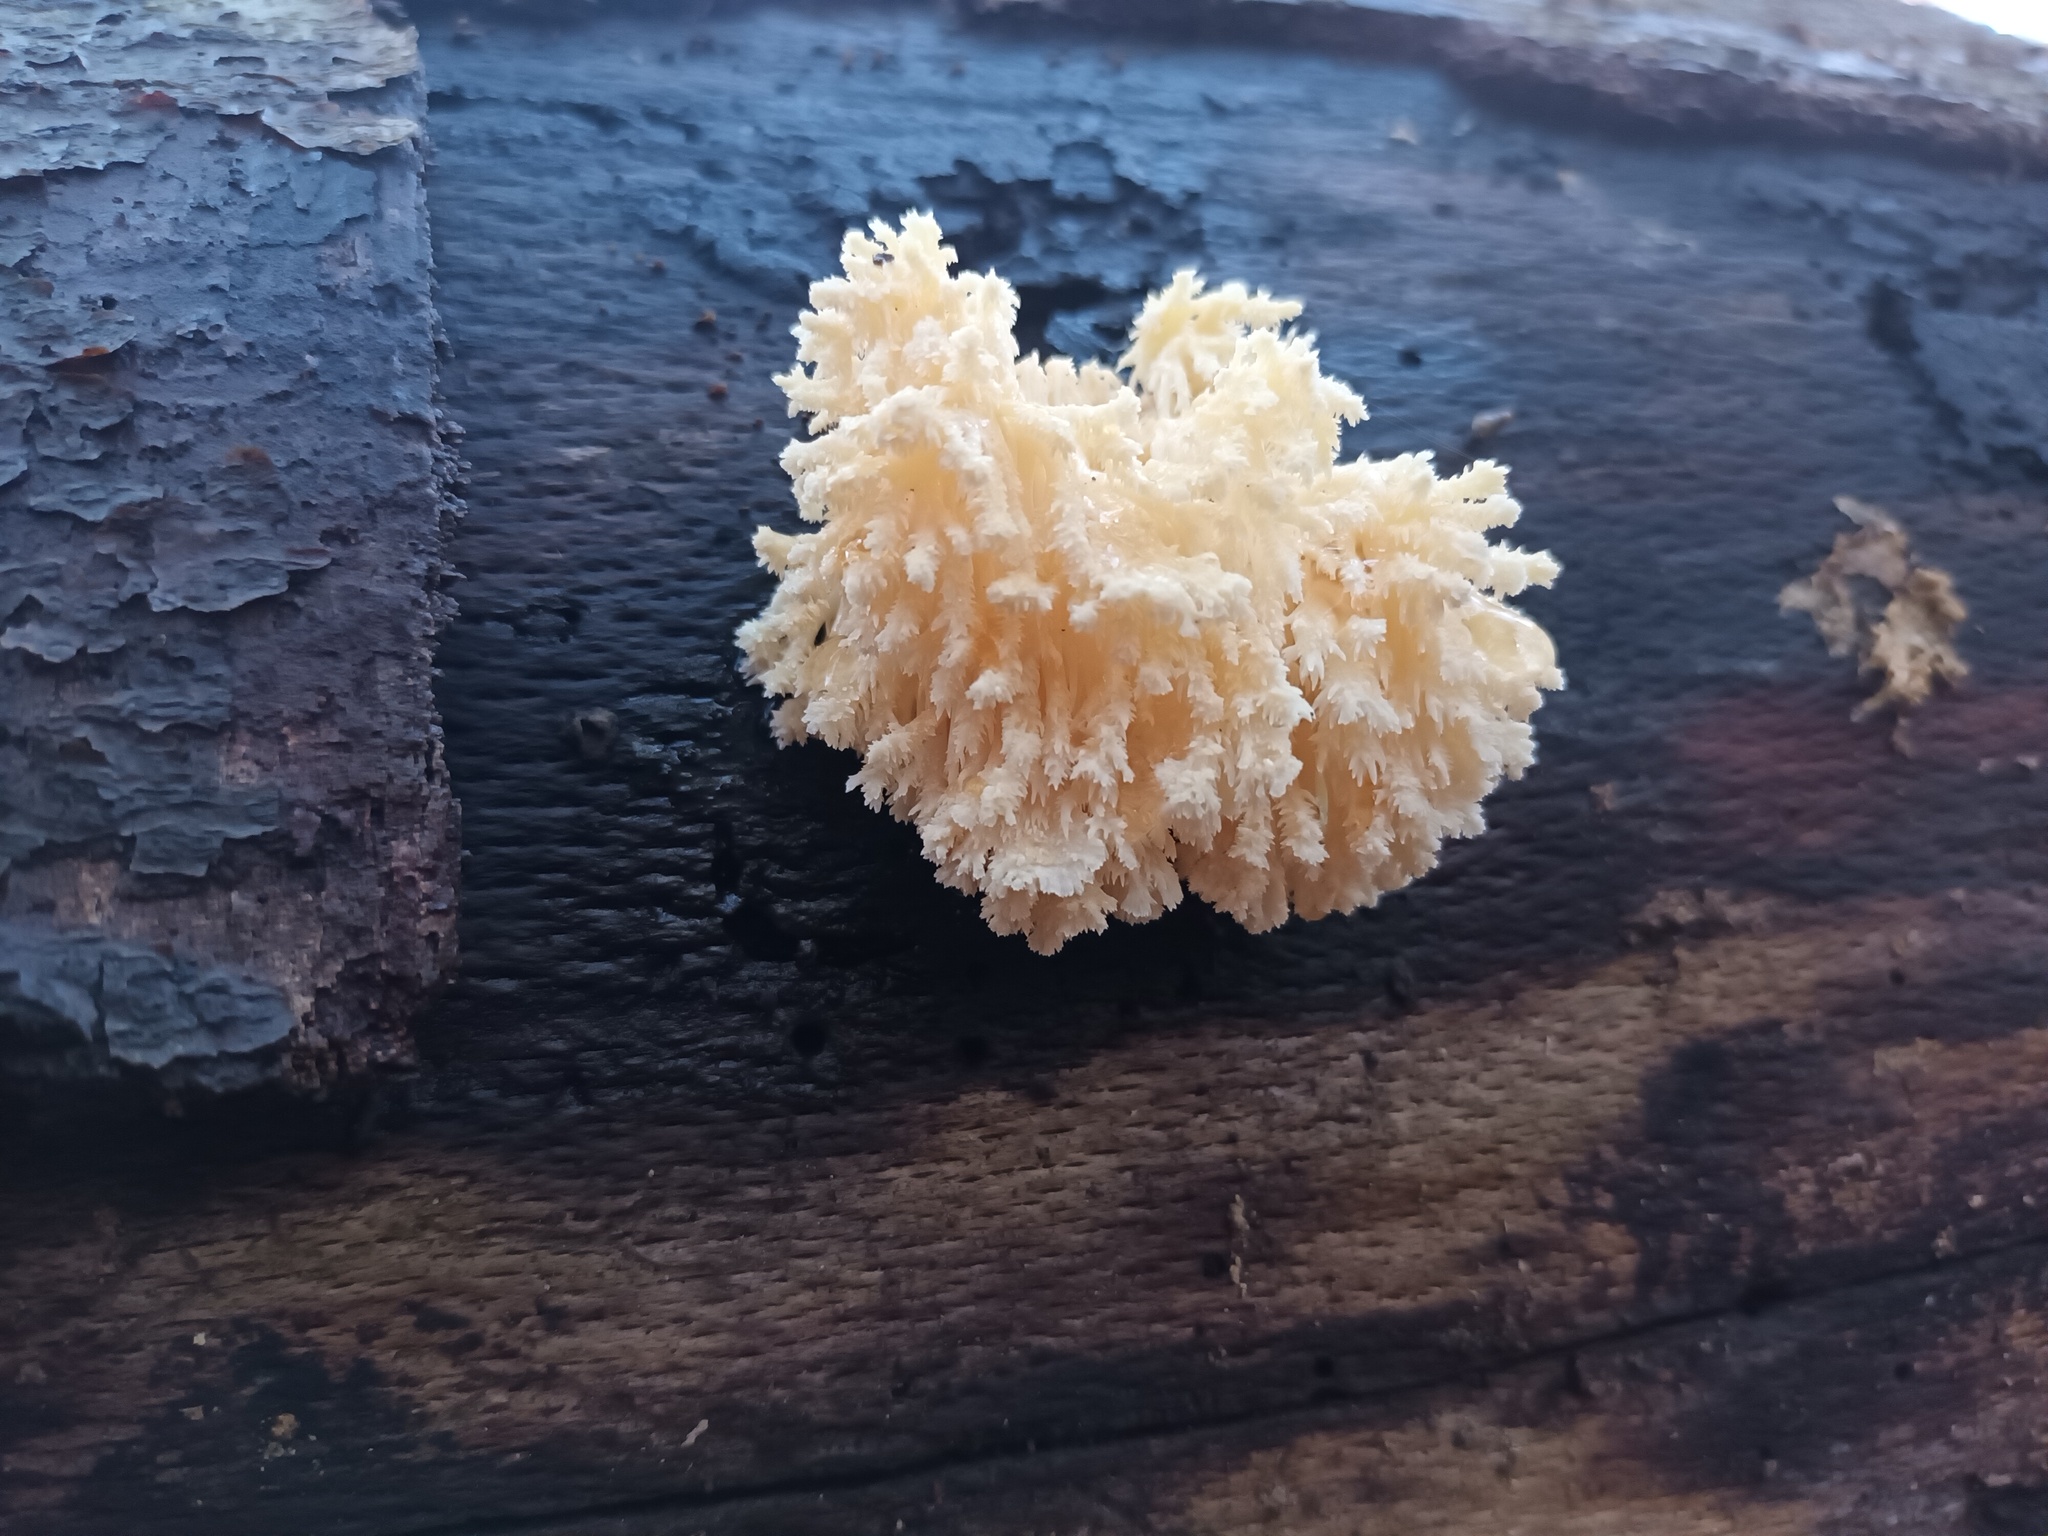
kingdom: Fungi
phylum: Basidiomycota
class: Agaricomycetes
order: Russulales
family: Hericiaceae
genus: Hericium
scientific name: Hericium coralloides
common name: Coral tooth
